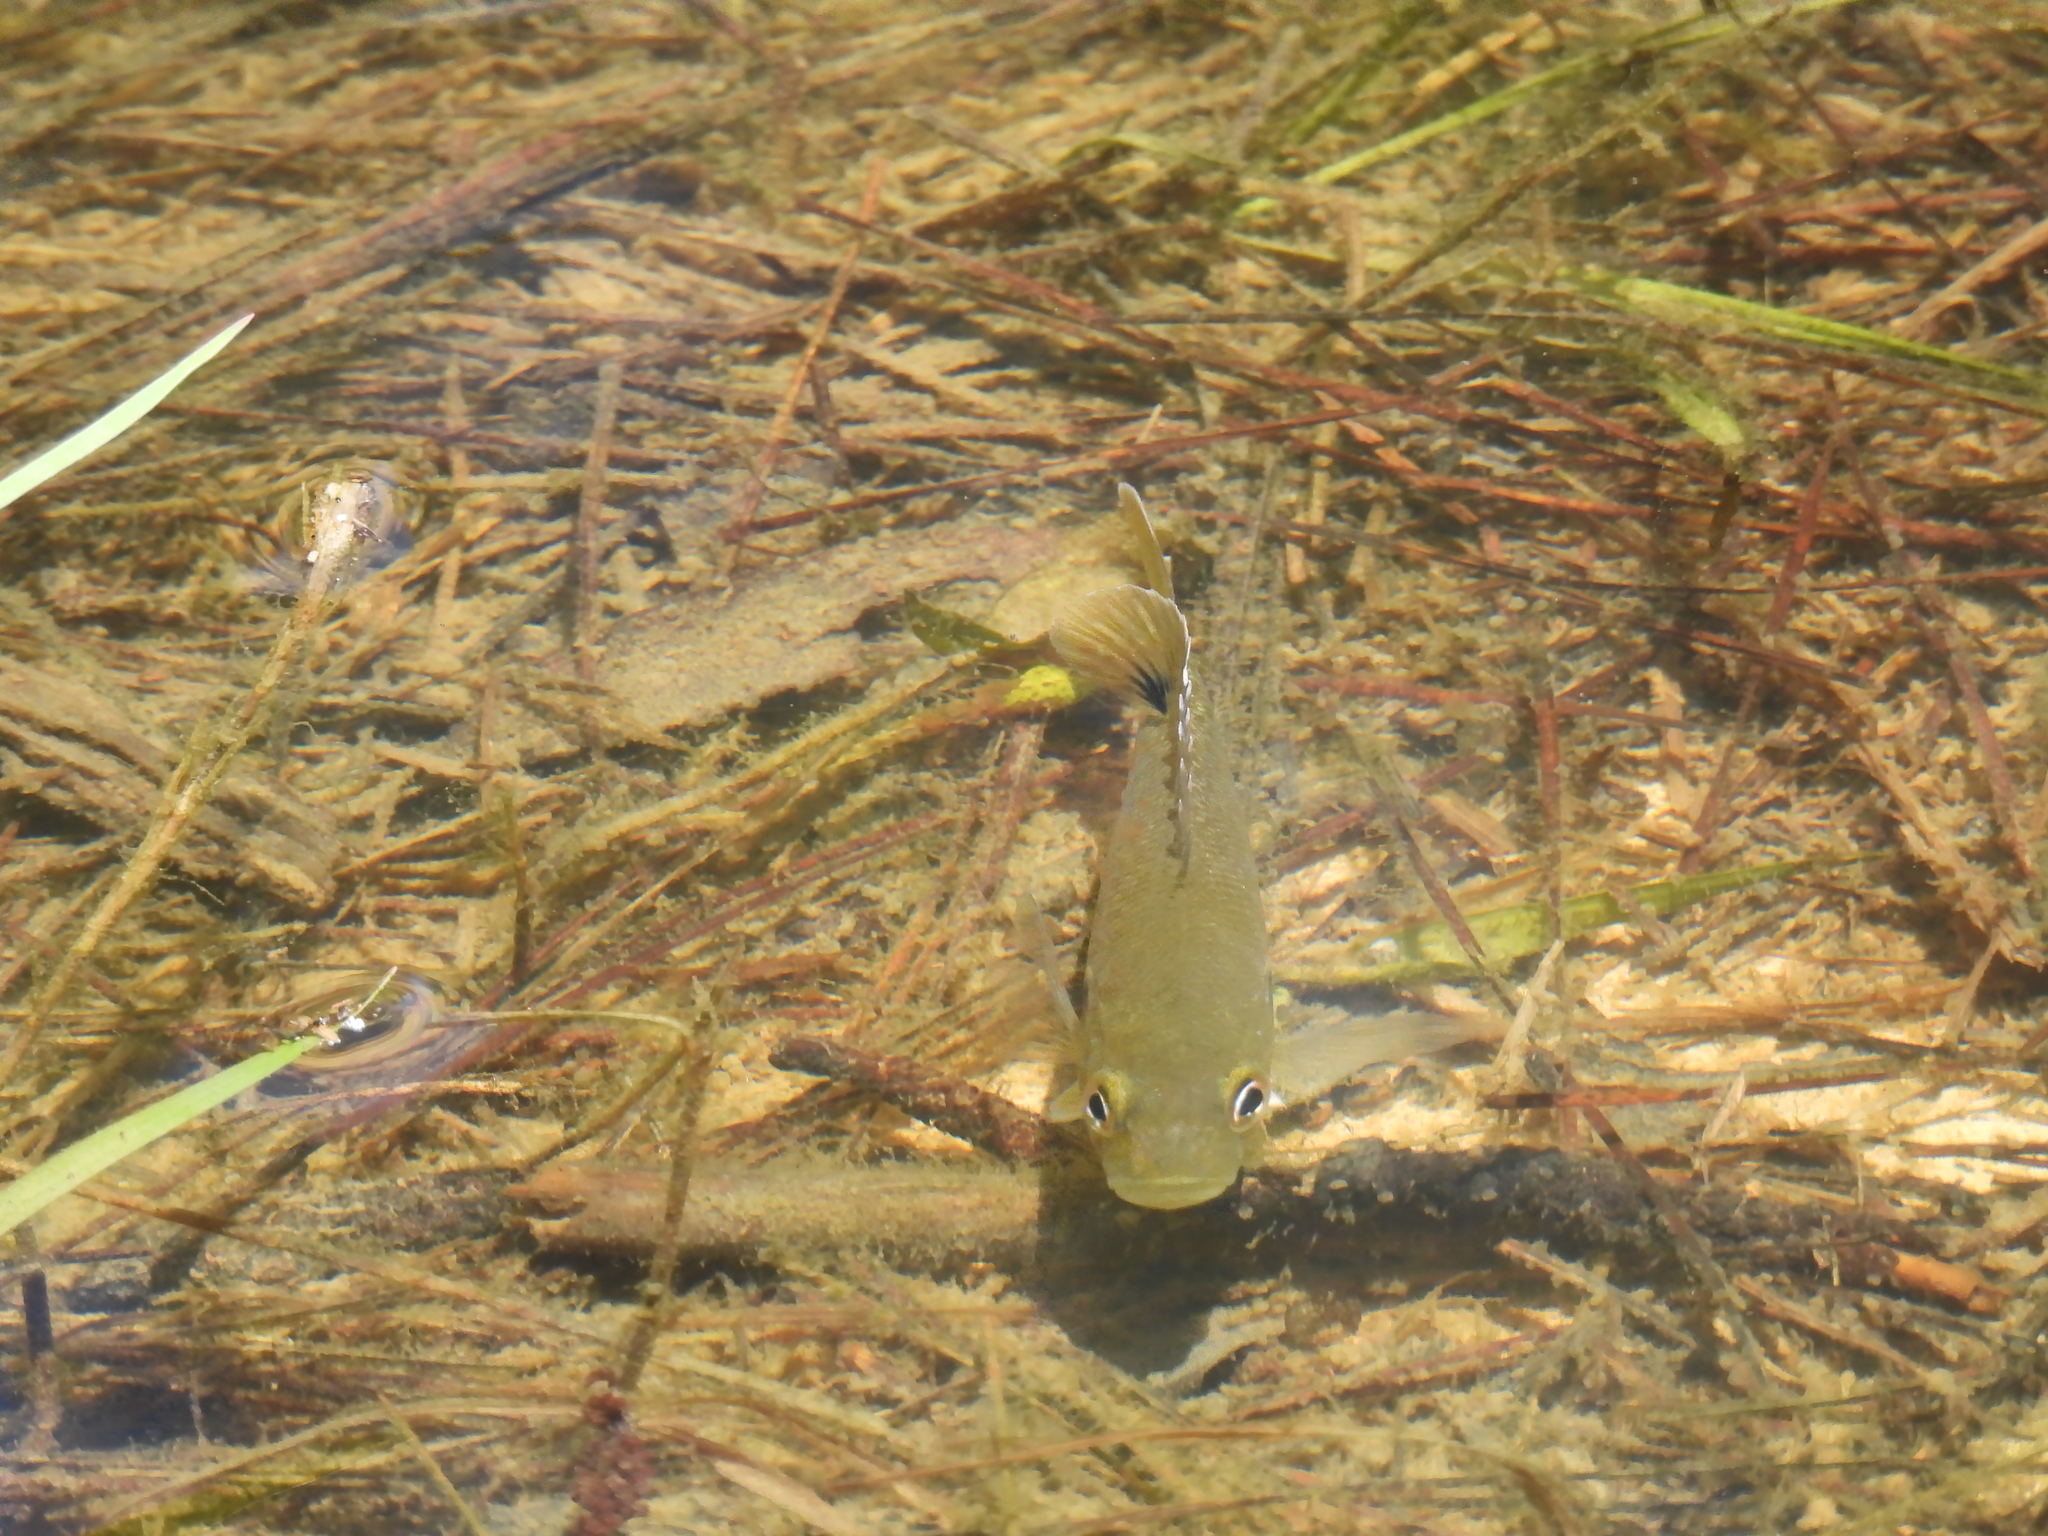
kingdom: Animalia
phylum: Chordata
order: Perciformes
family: Centrarchidae
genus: Lepomis
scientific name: Lepomis cyanellus
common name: Green sunfish
